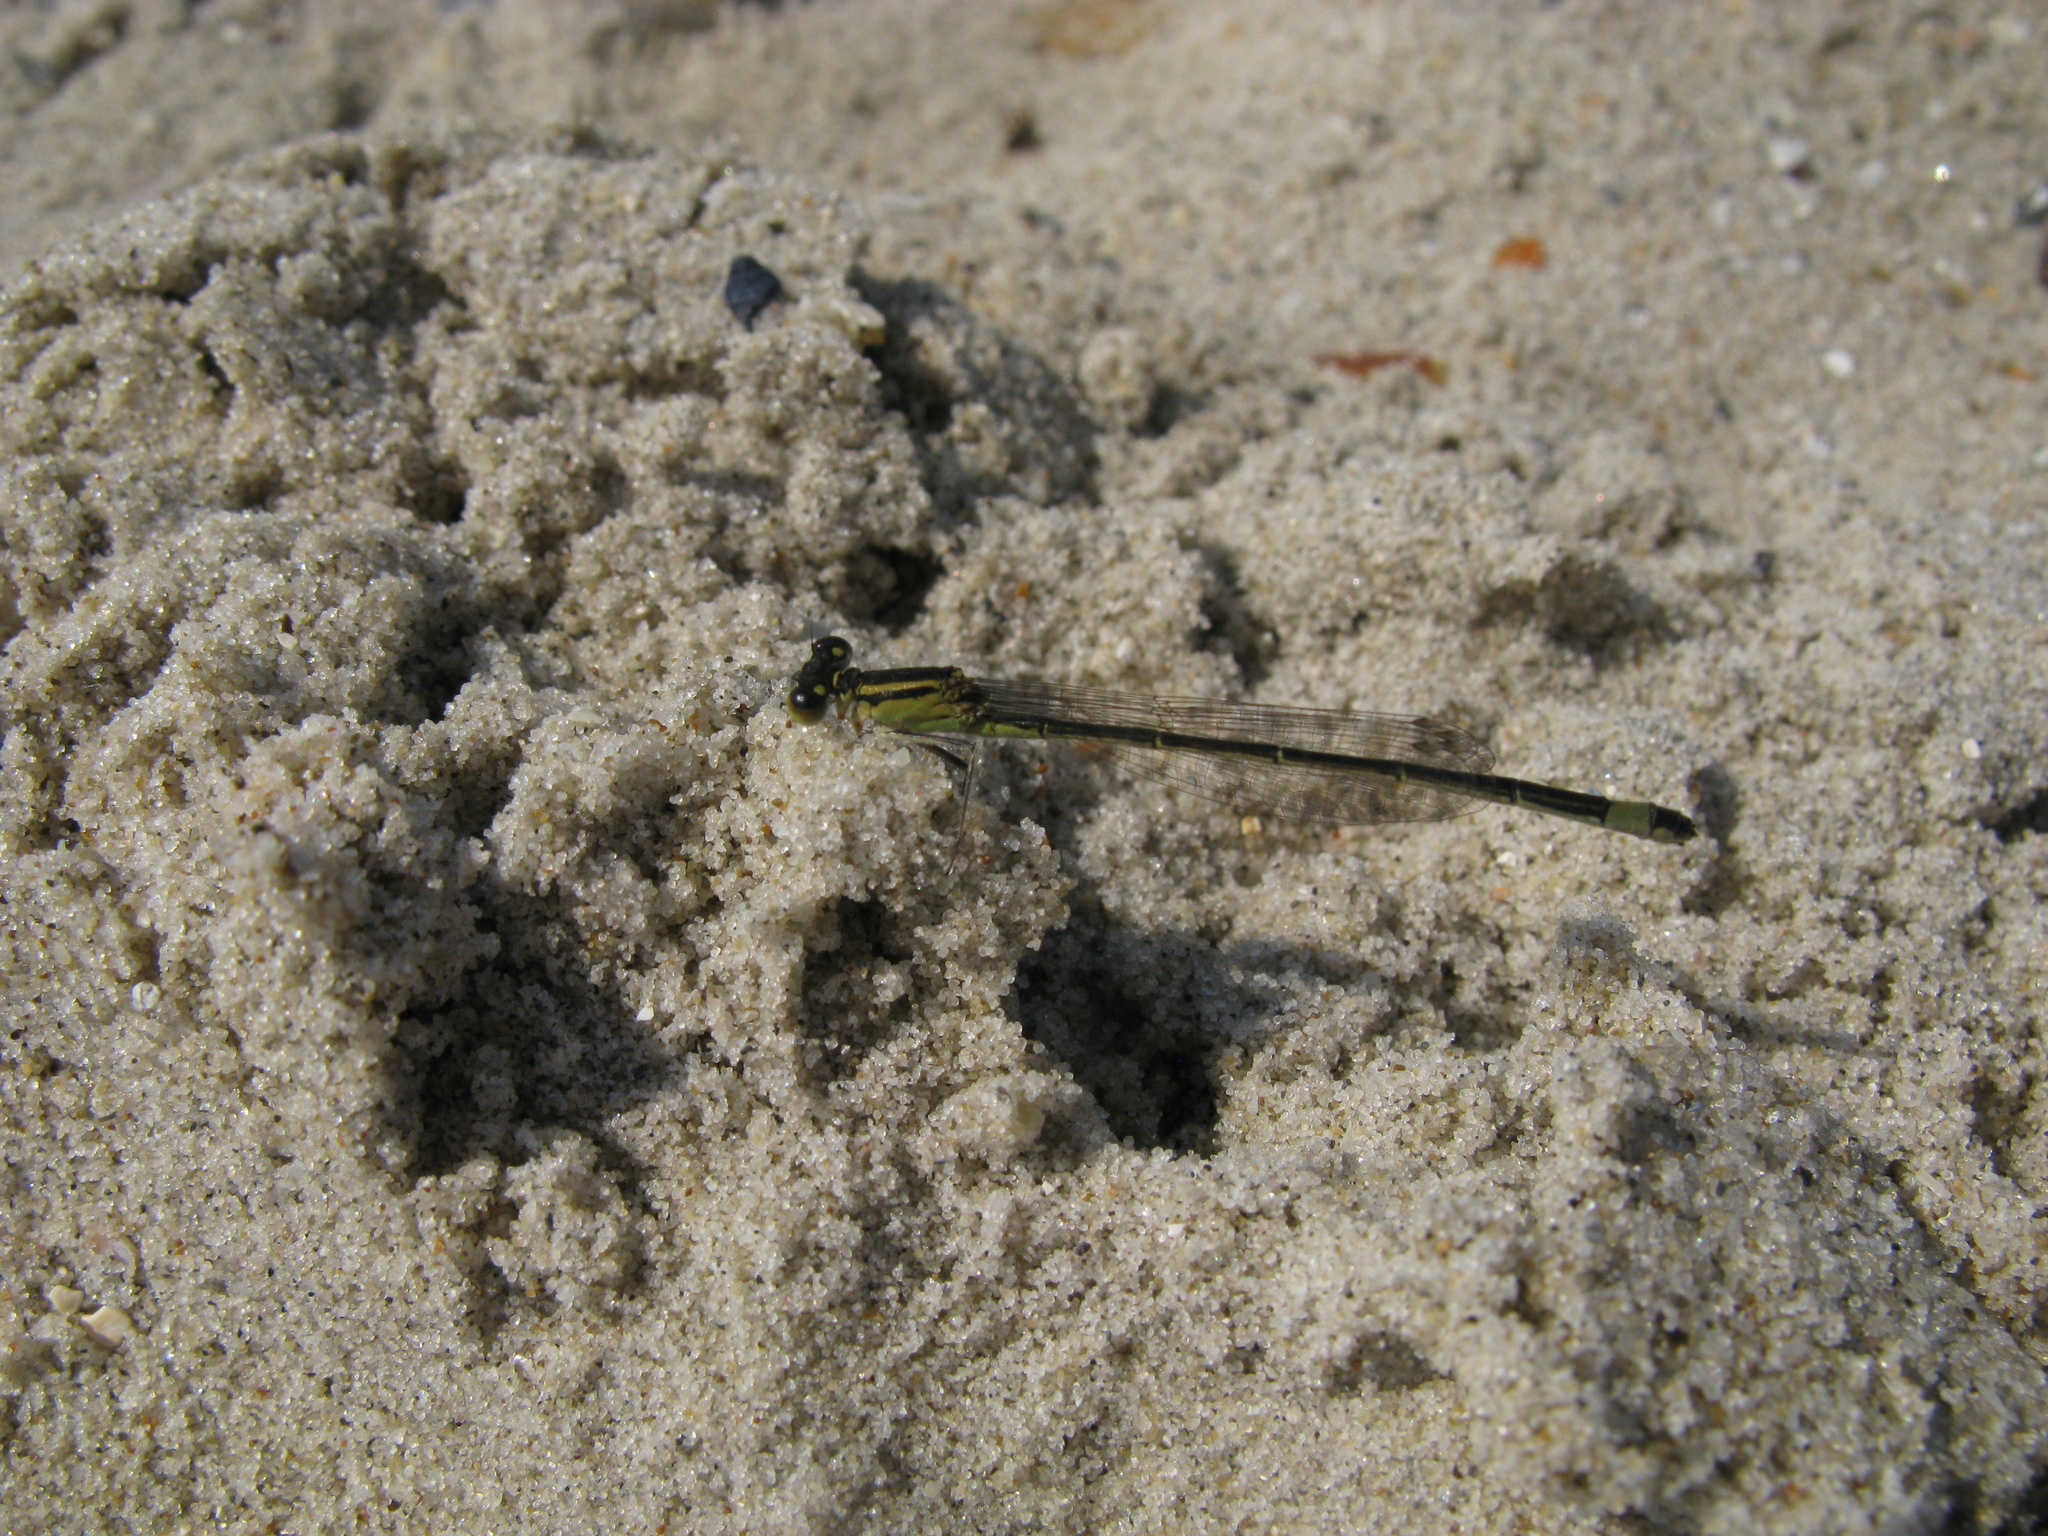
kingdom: Animalia
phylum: Arthropoda
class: Insecta
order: Odonata
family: Coenagrionidae
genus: Ischnura
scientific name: Ischnura elegans
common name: Blue-tailed damselfly
